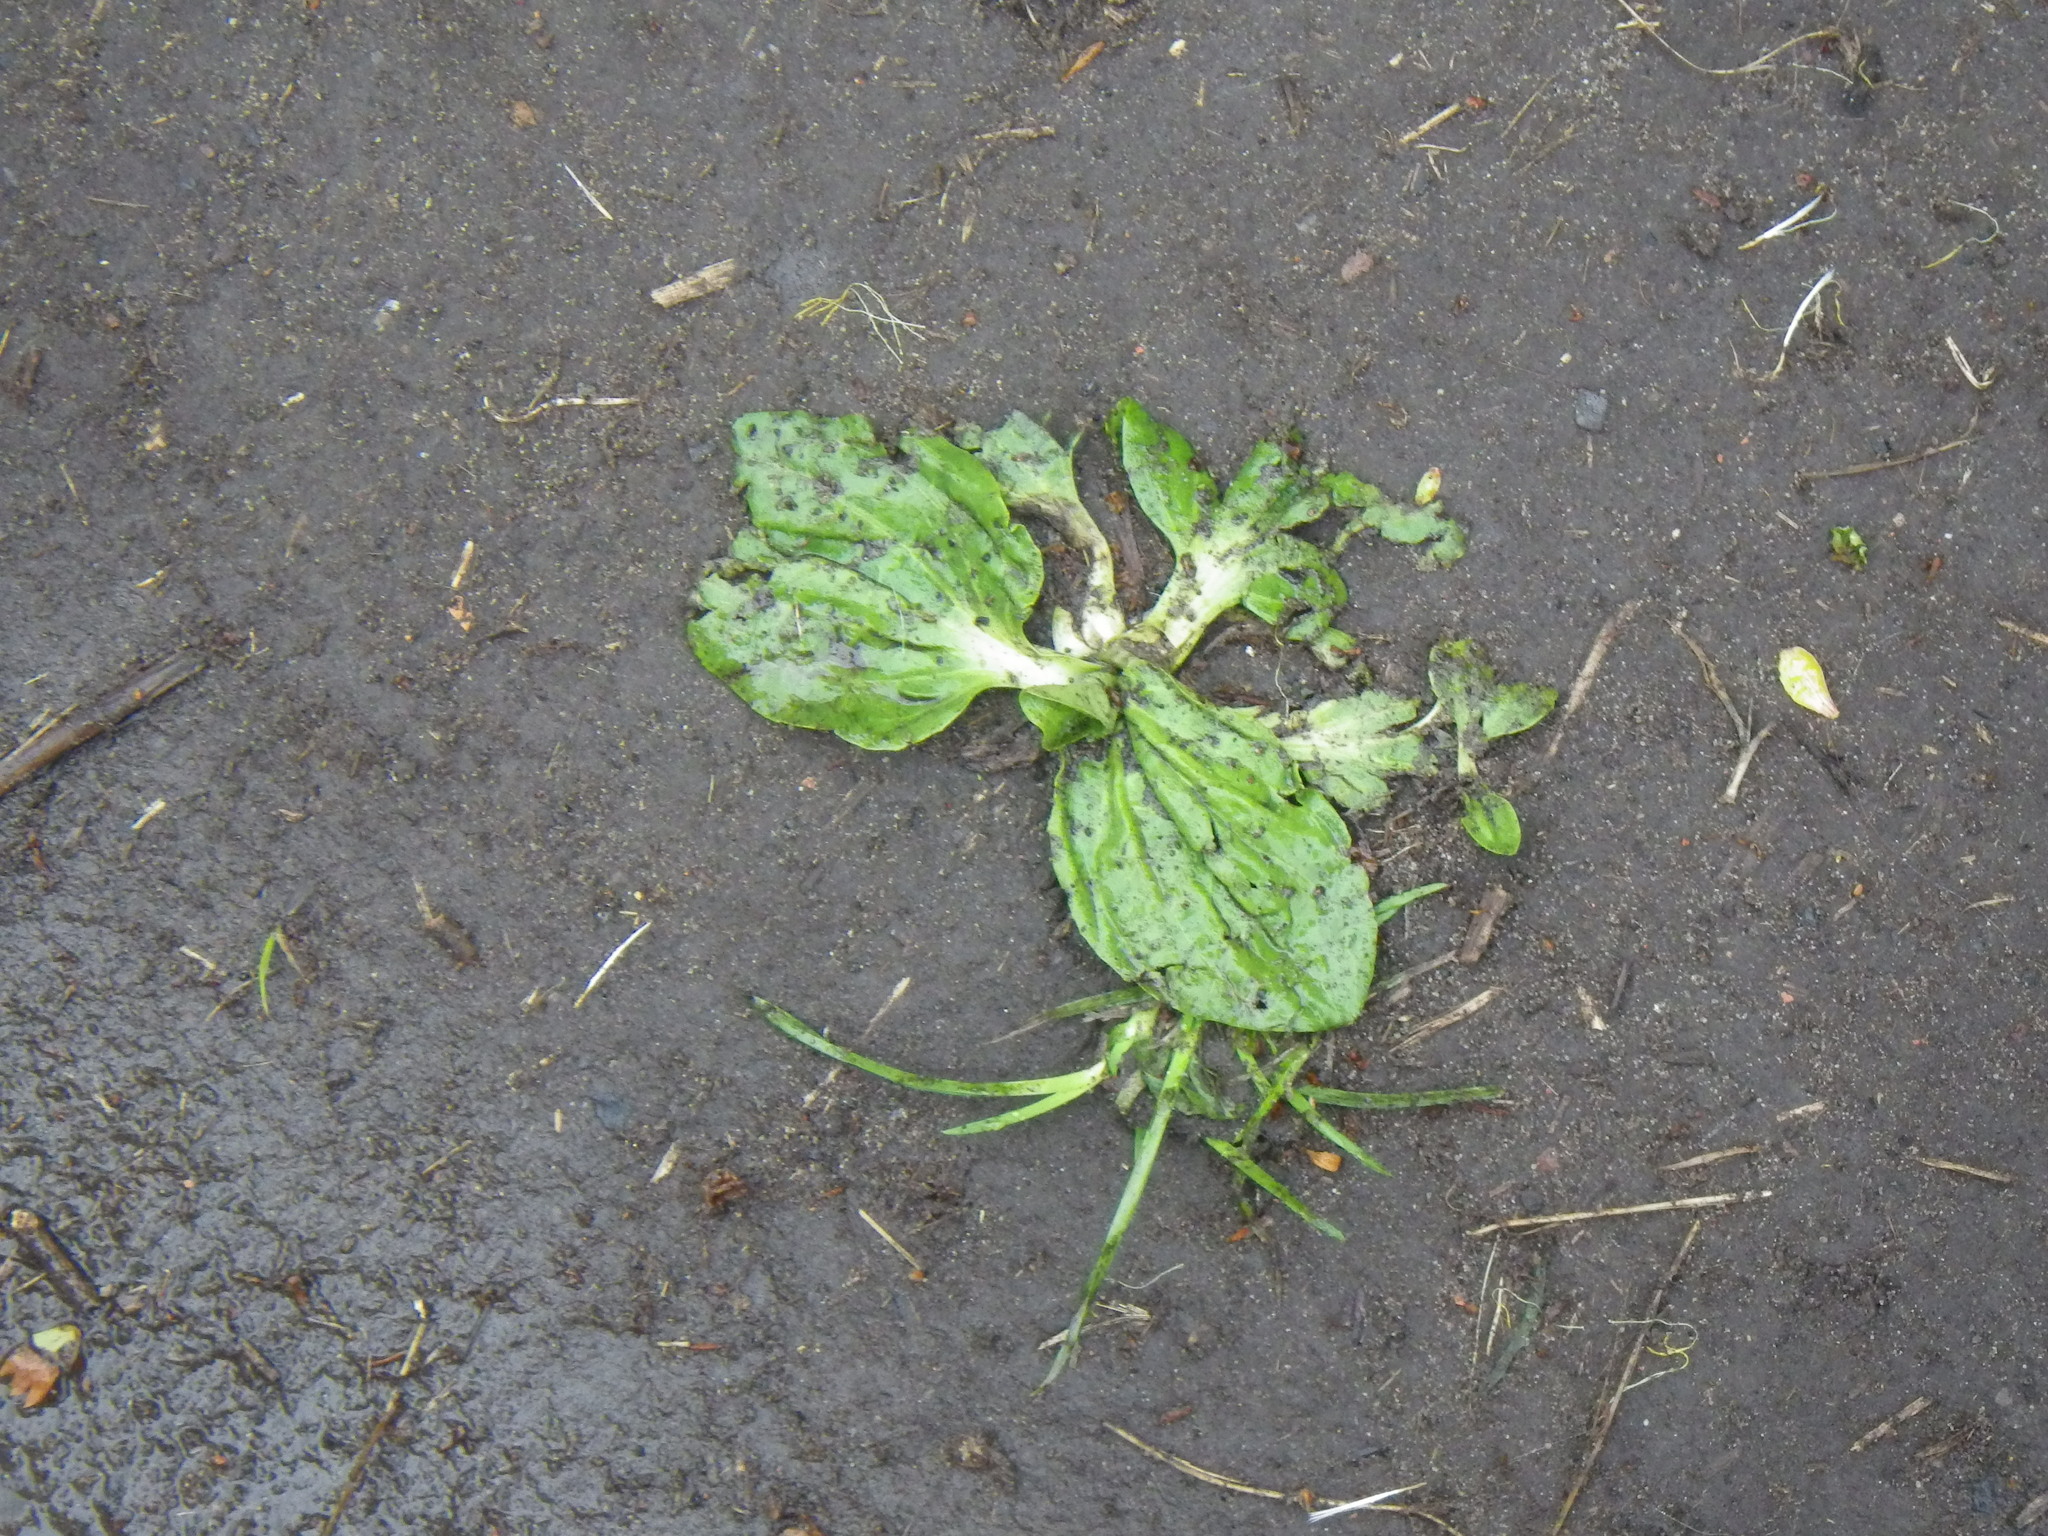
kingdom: Plantae
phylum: Tracheophyta
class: Magnoliopsida
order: Lamiales
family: Plantaginaceae
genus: Plantago
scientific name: Plantago major
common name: Common plantain
